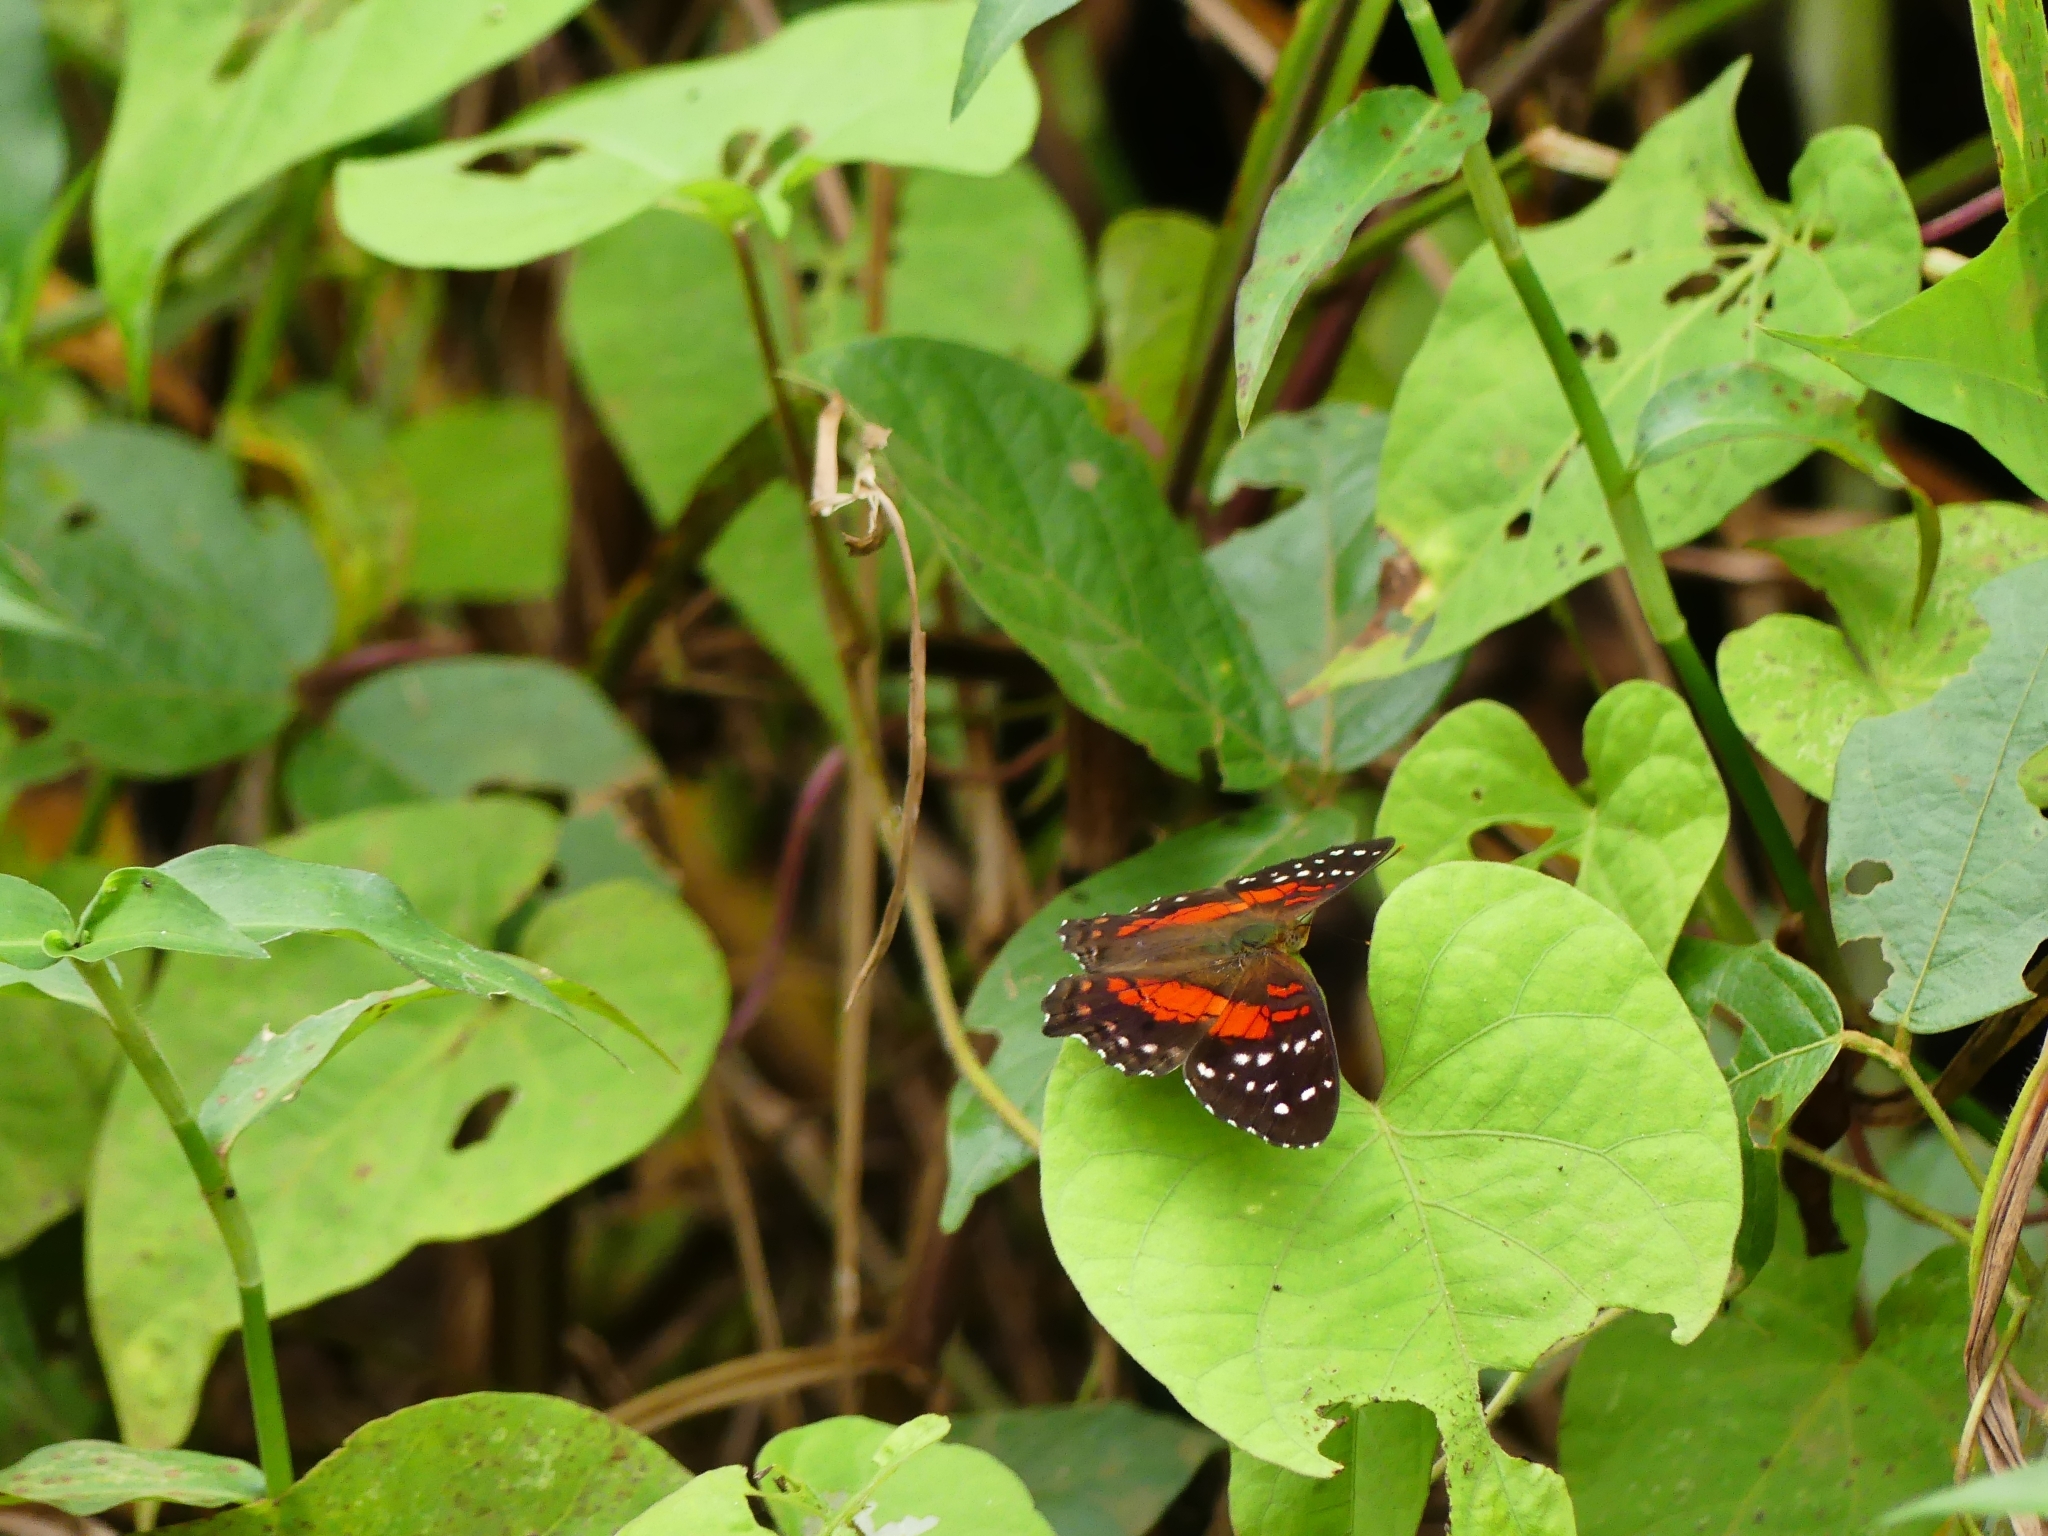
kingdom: Animalia
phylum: Arthropoda
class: Insecta
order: Lepidoptera
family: Nymphalidae
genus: Anartia
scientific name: Anartia amathea
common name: Red peacock
